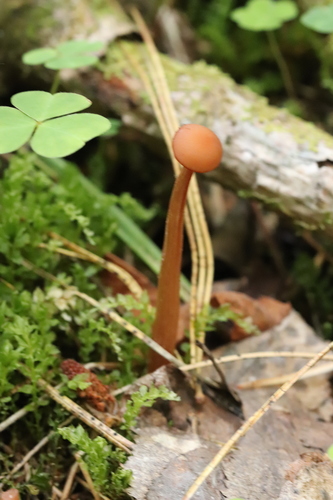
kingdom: Fungi
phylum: Basidiomycota
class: Agaricomycetes
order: Agaricales
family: Hydnangiaceae
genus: Laccaria
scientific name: Laccaria proxima
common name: Scurfy deceiver
